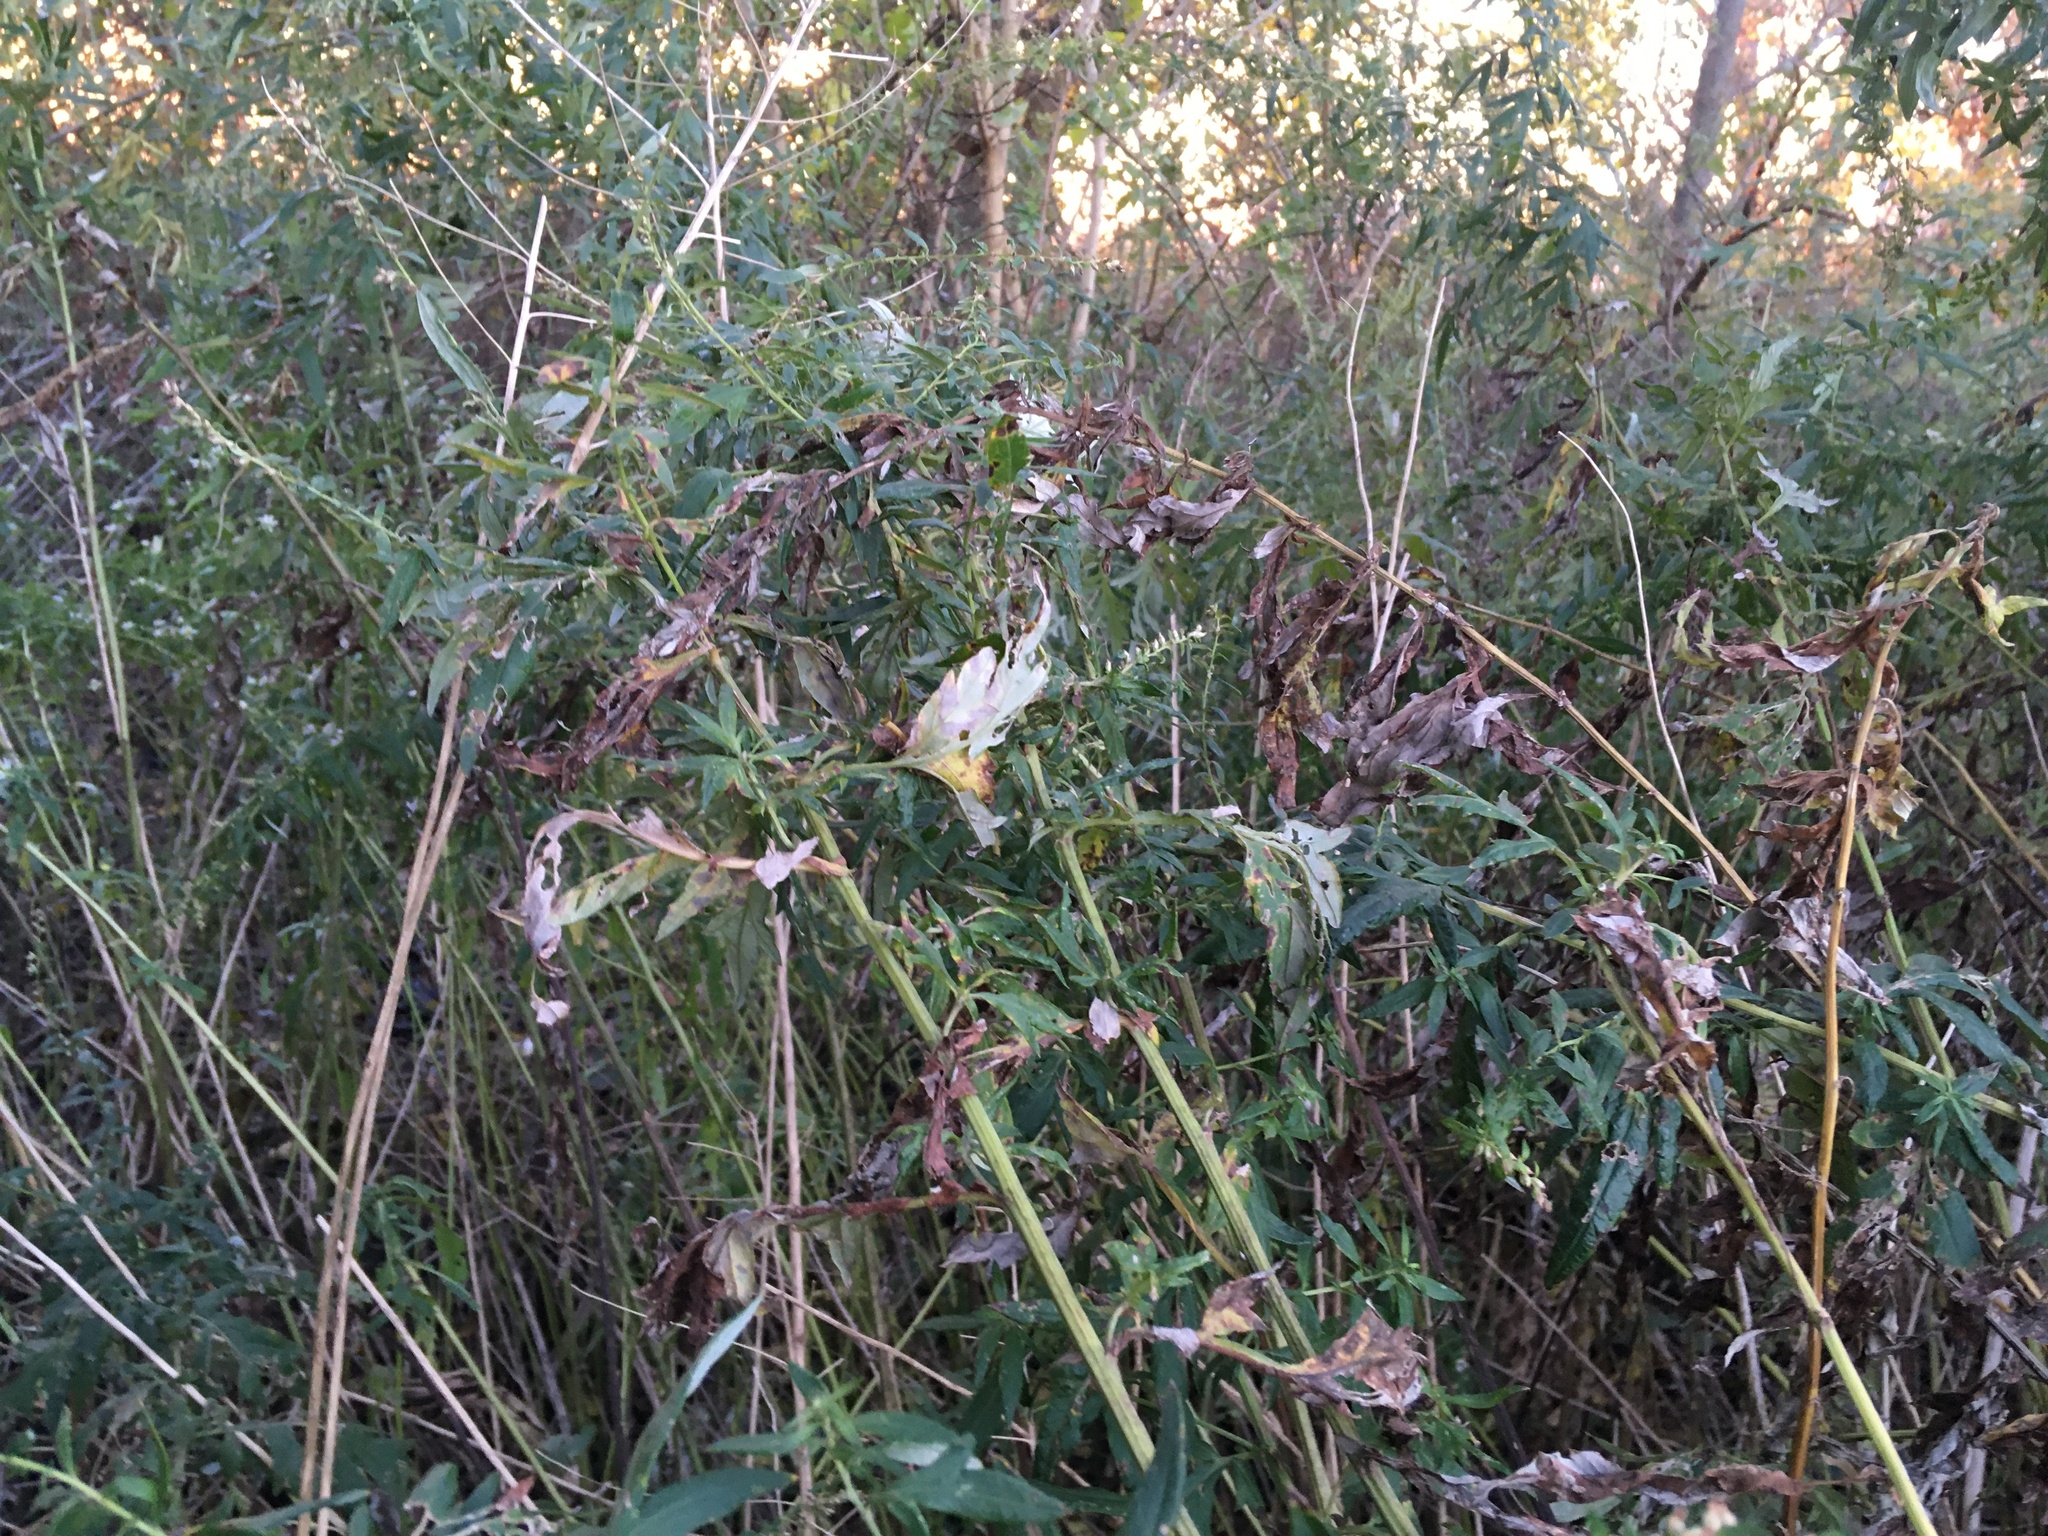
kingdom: Plantae
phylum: Tracheophyta
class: Magnoliopsida
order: Asterales
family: Asteraceae
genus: Artemisia
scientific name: Artemisia vulgaris
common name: Mugwort
